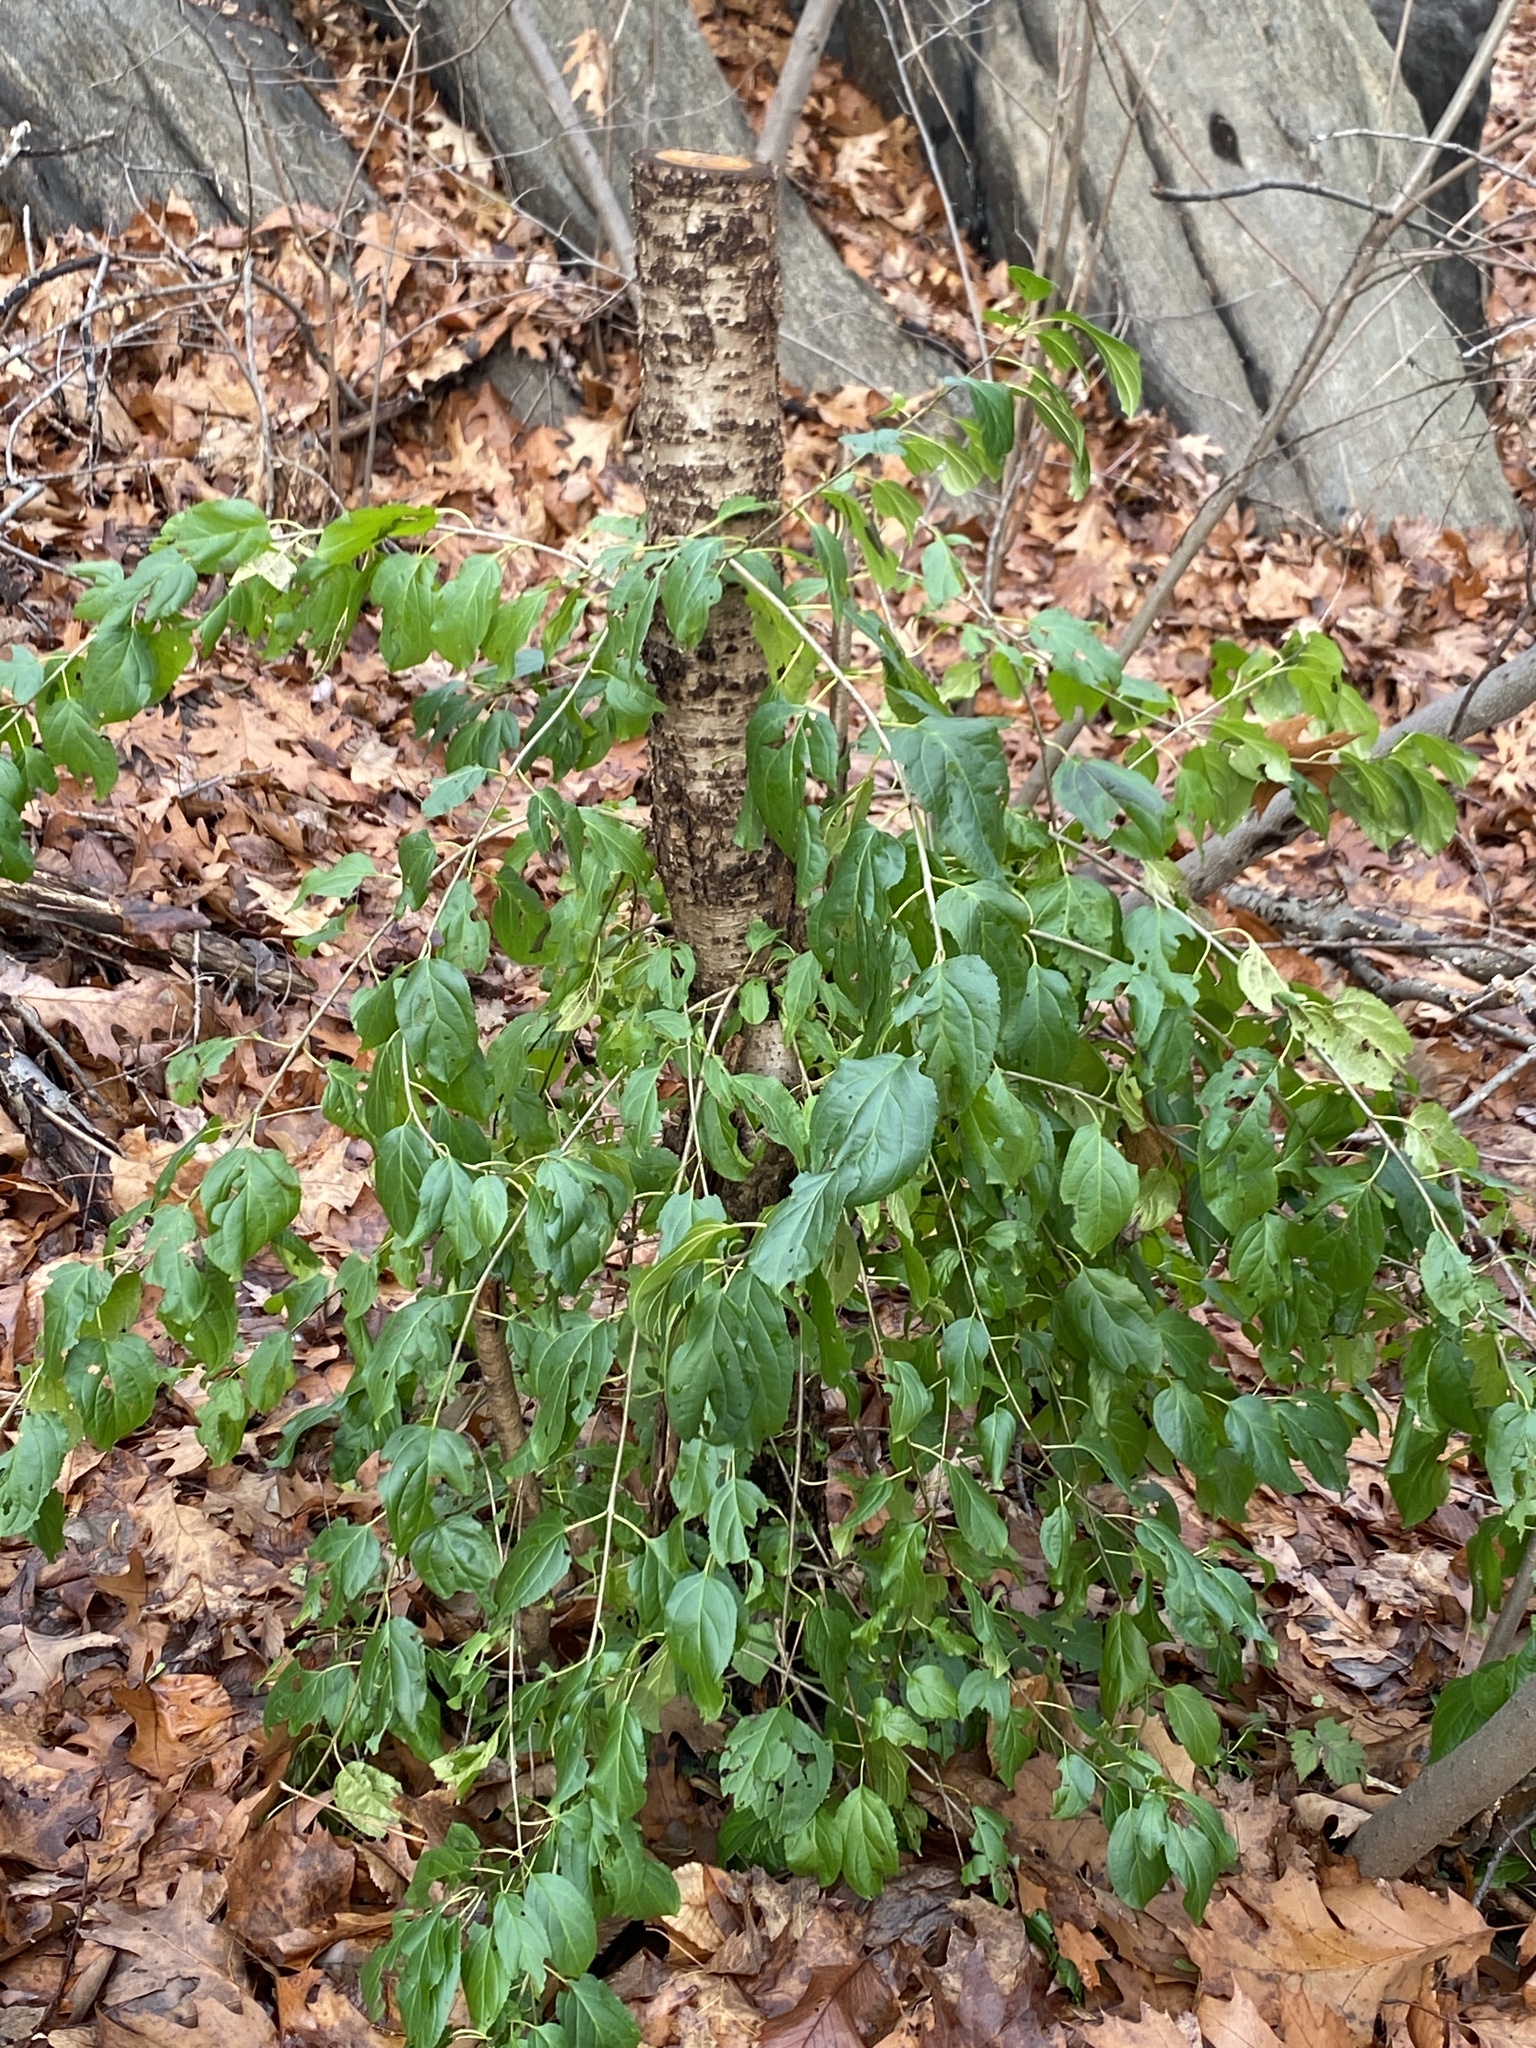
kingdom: Plantae
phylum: Tracheophyta
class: Magnoliopsida
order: Rosales
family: Rhamnaceae
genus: Rhamnus
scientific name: Rhamnus cathartica
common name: Common buckthorn
